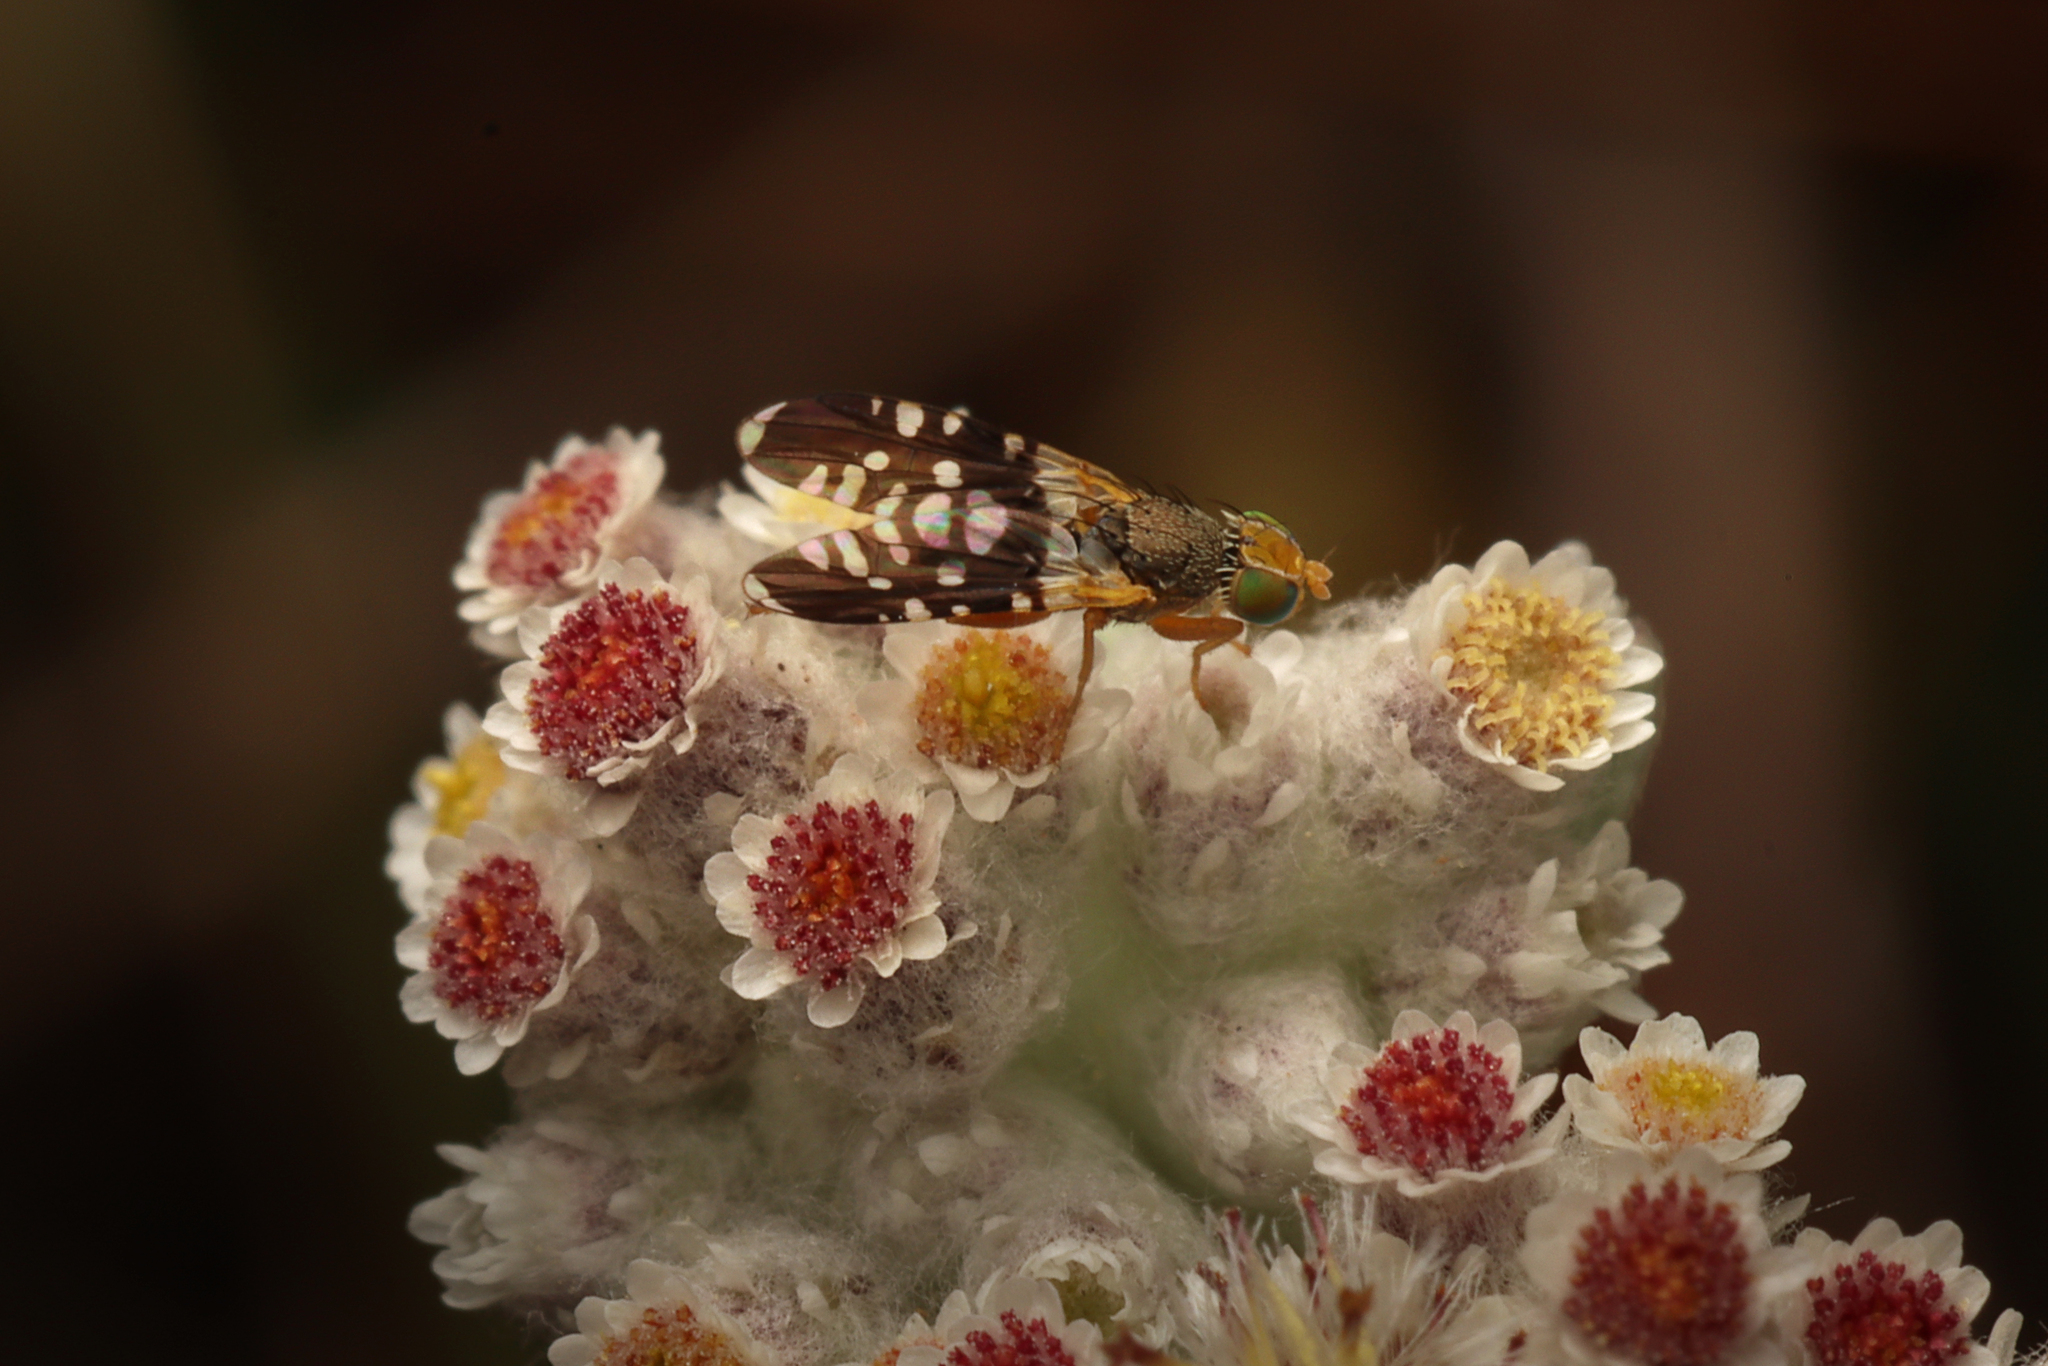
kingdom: Animalia
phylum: Arthropoda
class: Insecta
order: Diptera
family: Tephritidae
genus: Spathulina
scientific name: Spathulina acroleuca
